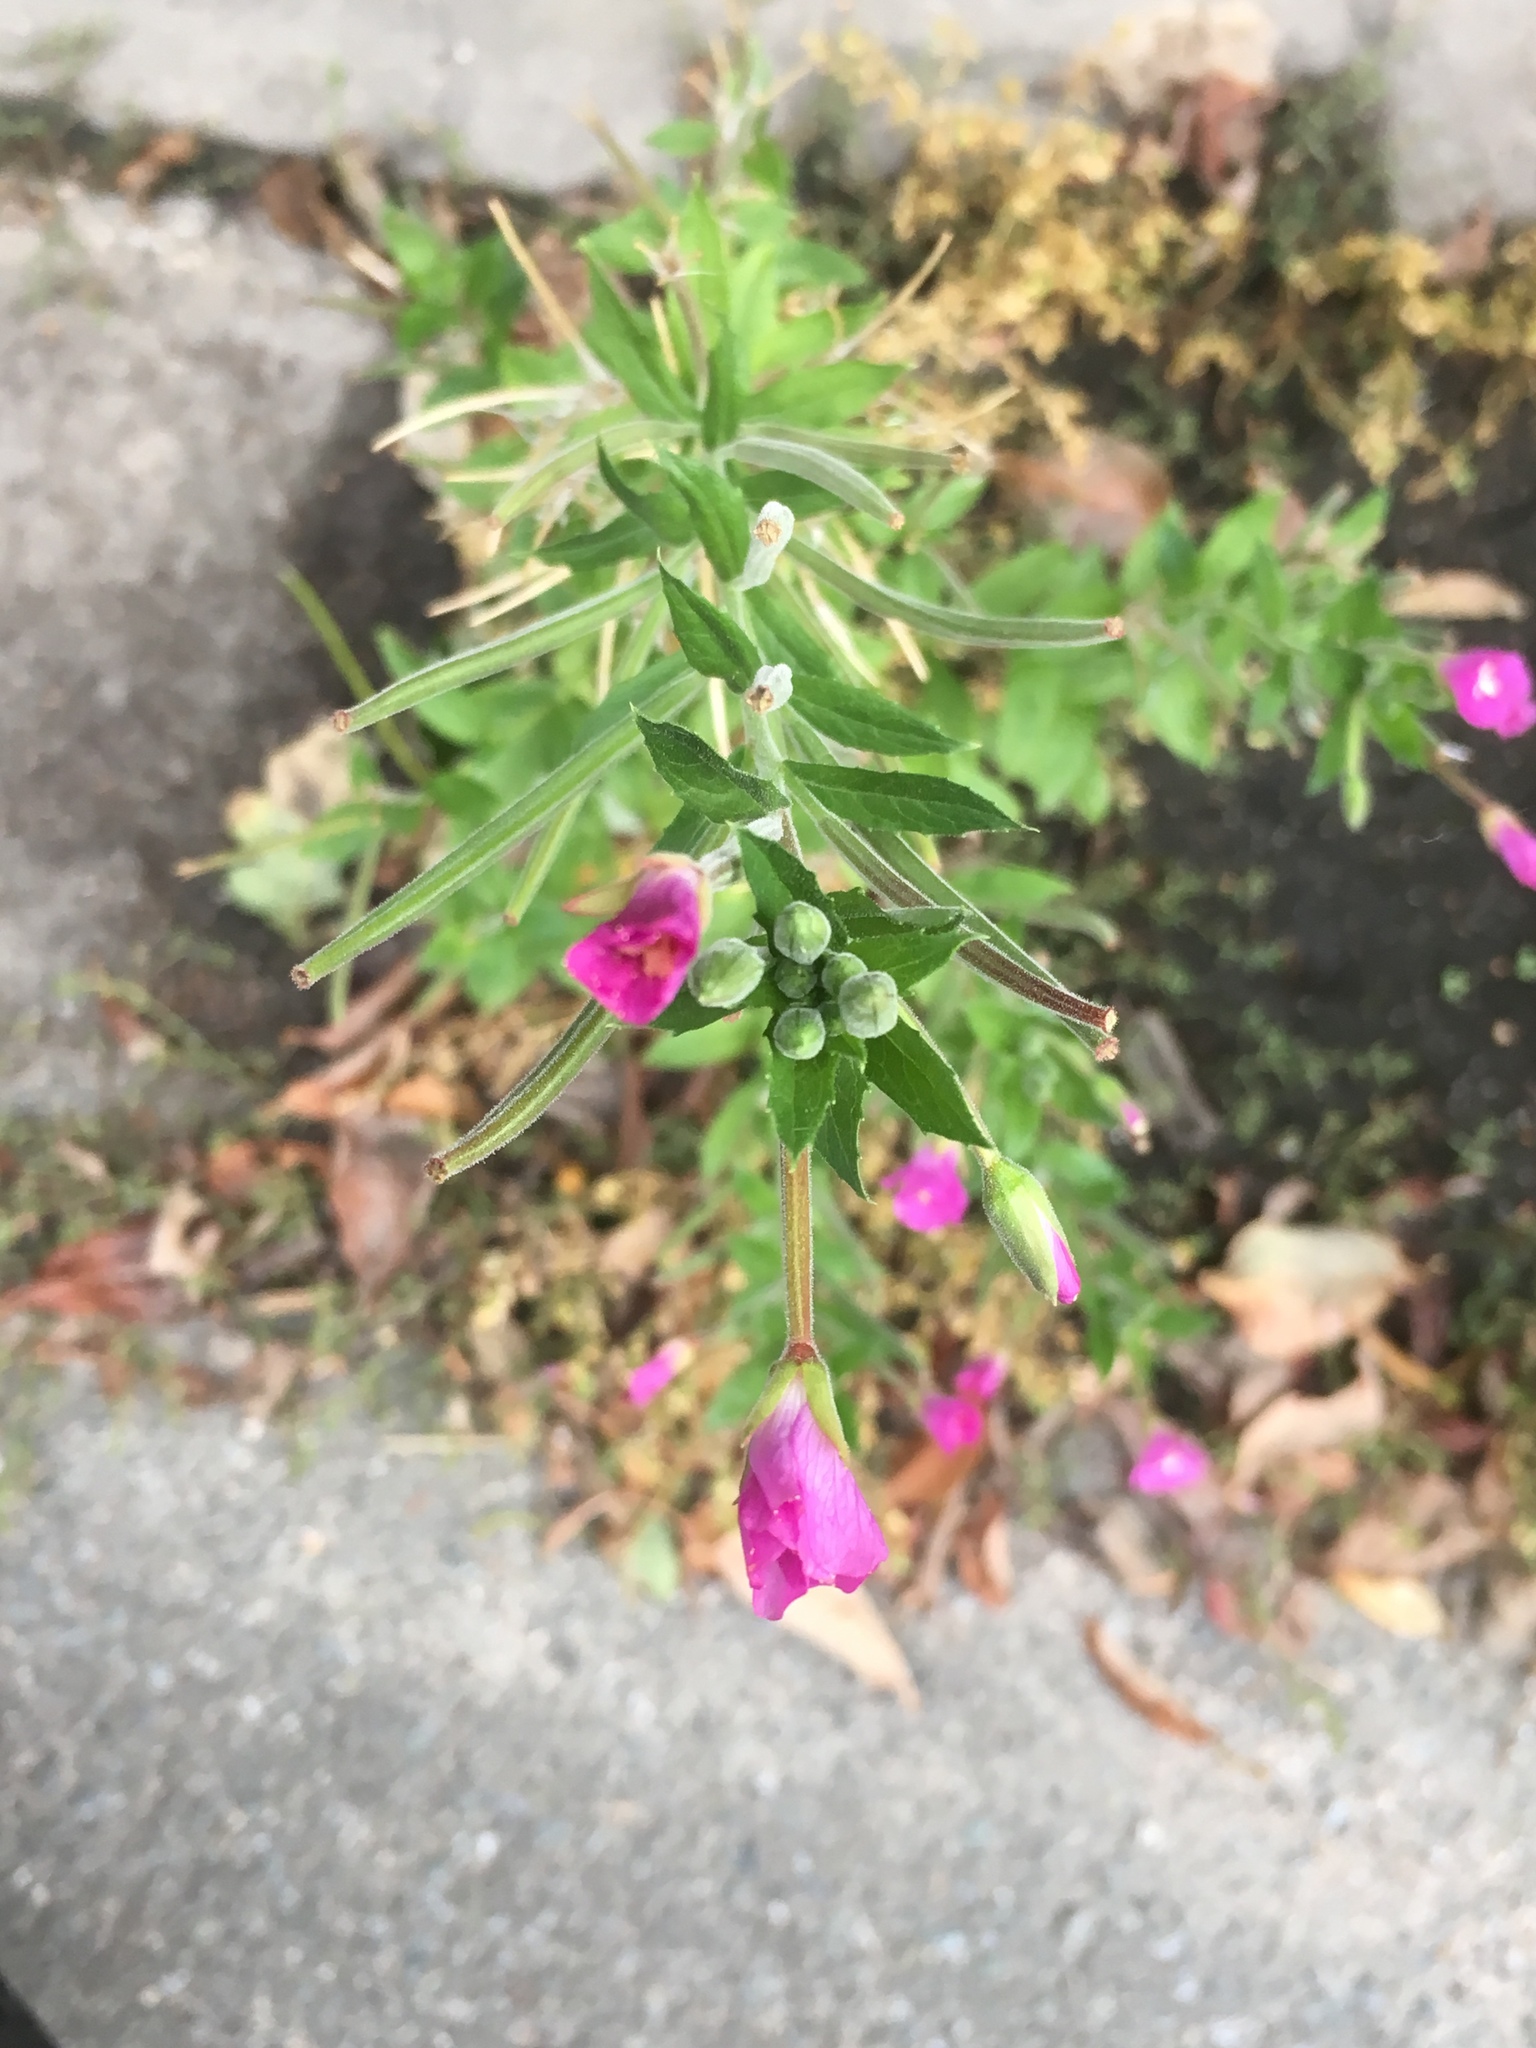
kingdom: Plantae
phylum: Tracheophyta
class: Magnoliopsida
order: Myrtales
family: Onagraceae
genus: Epilobium
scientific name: Epilobium hirsutum
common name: Great willowherb
